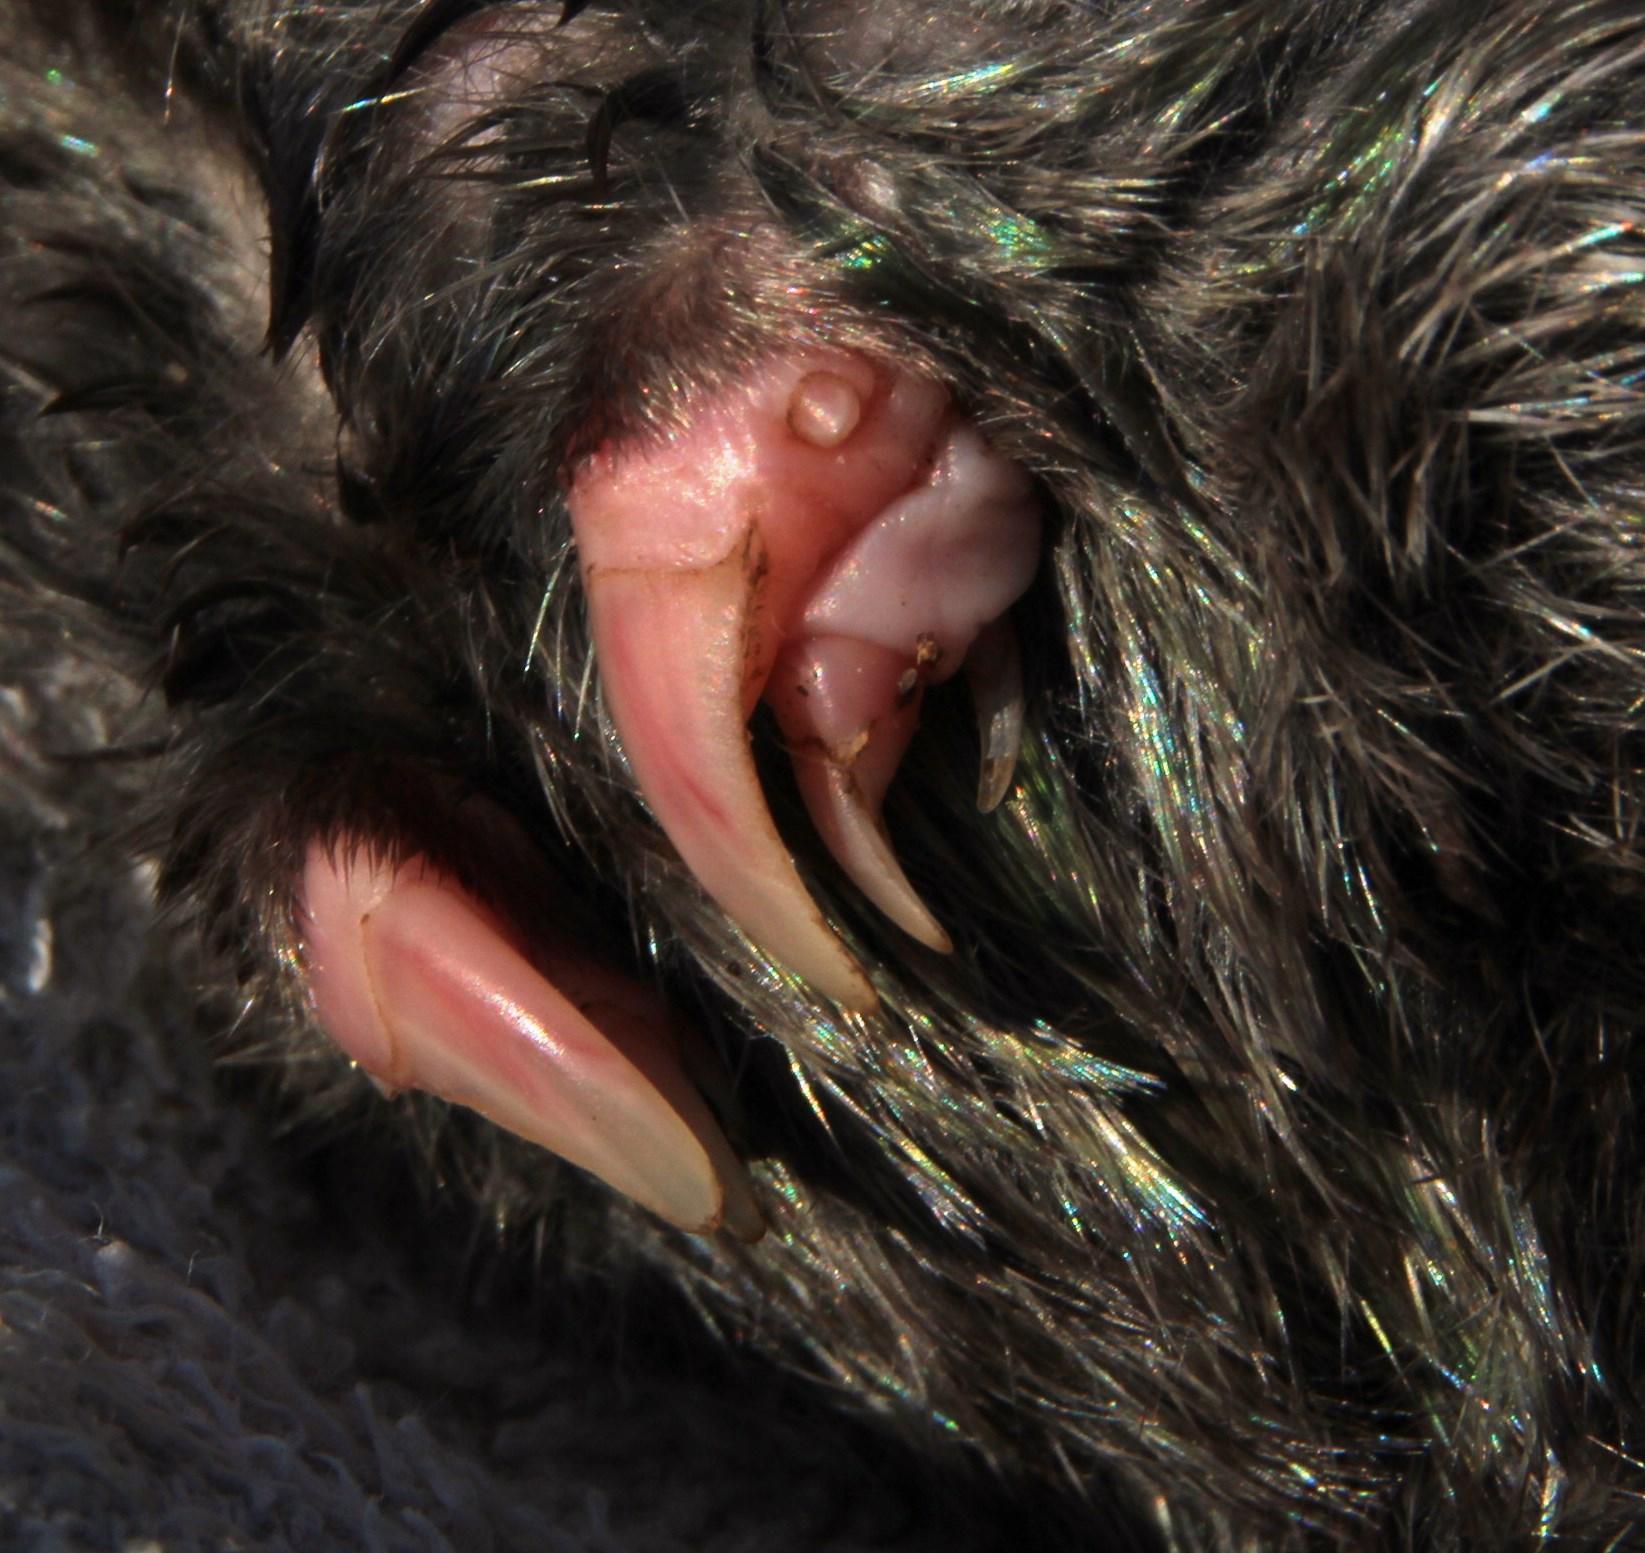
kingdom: Animalia
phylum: Chordata
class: Mammalia
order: Afrosoricida
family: Chrysochloridae
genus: Chrysochloris
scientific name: Chrysochloris asiatica
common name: Cape golden mole
